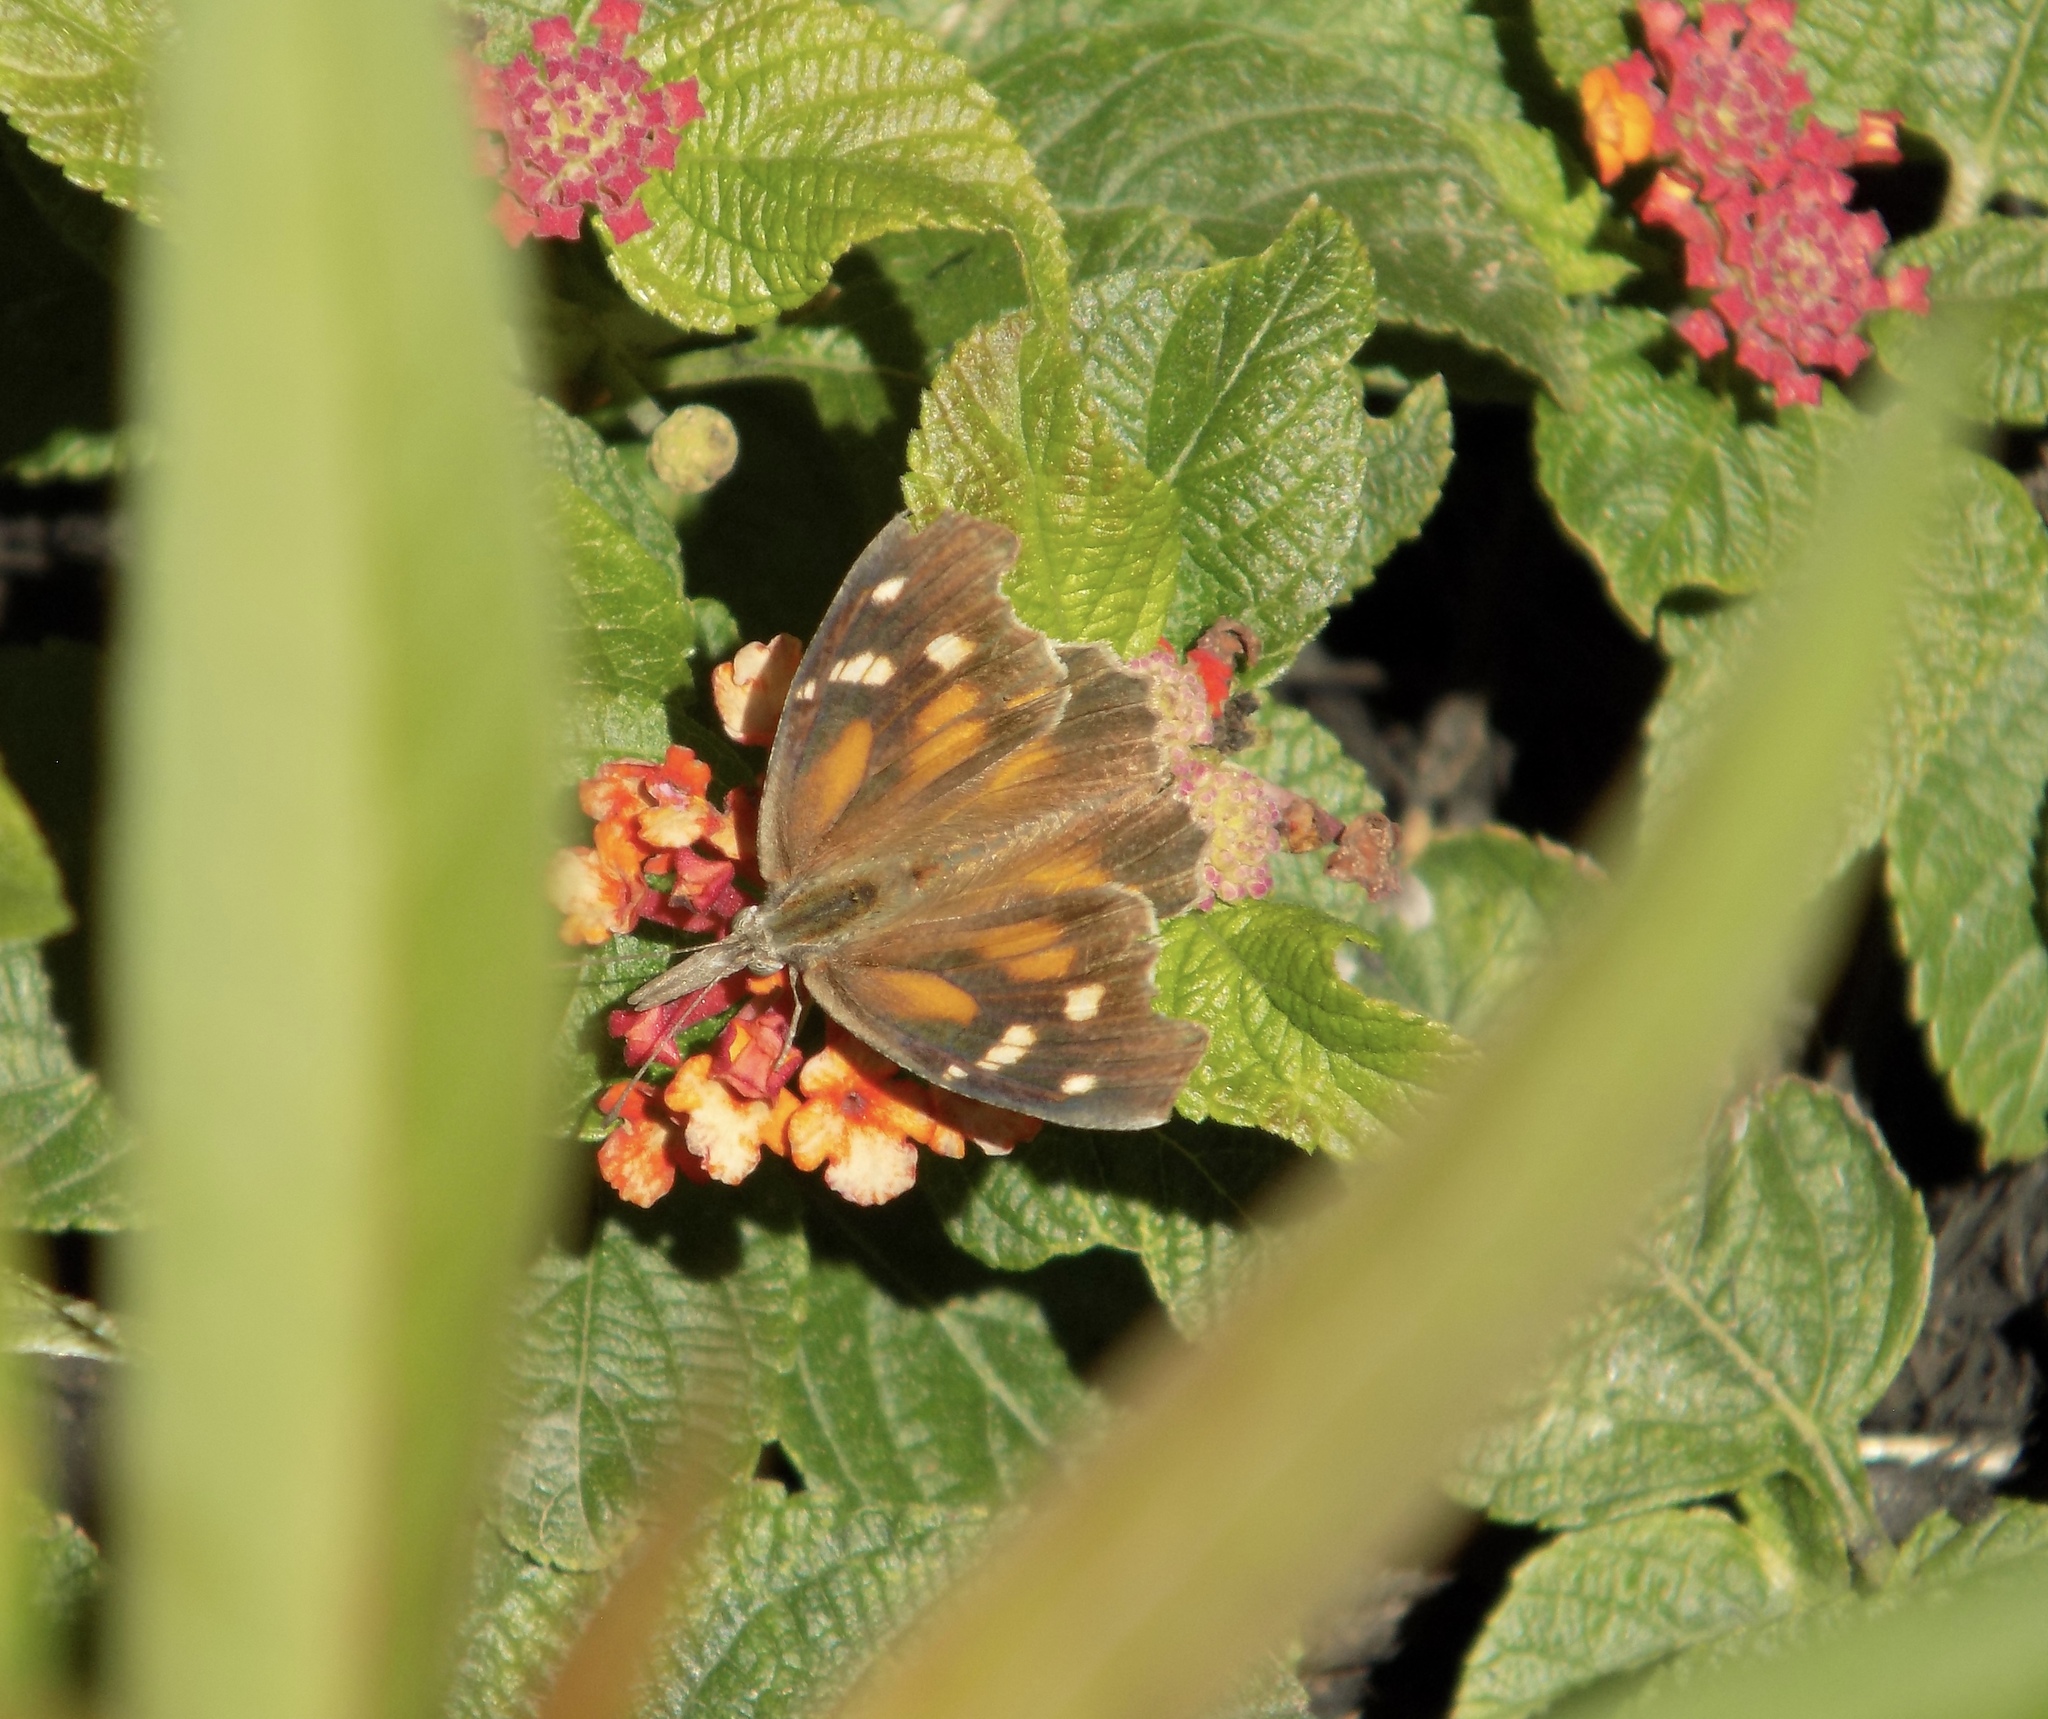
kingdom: Animalia
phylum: Arthropoda
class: Insecta
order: Lepidoptera
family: Nymphalidae
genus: Libytheana
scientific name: Libytheana carinenta
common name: American snout
